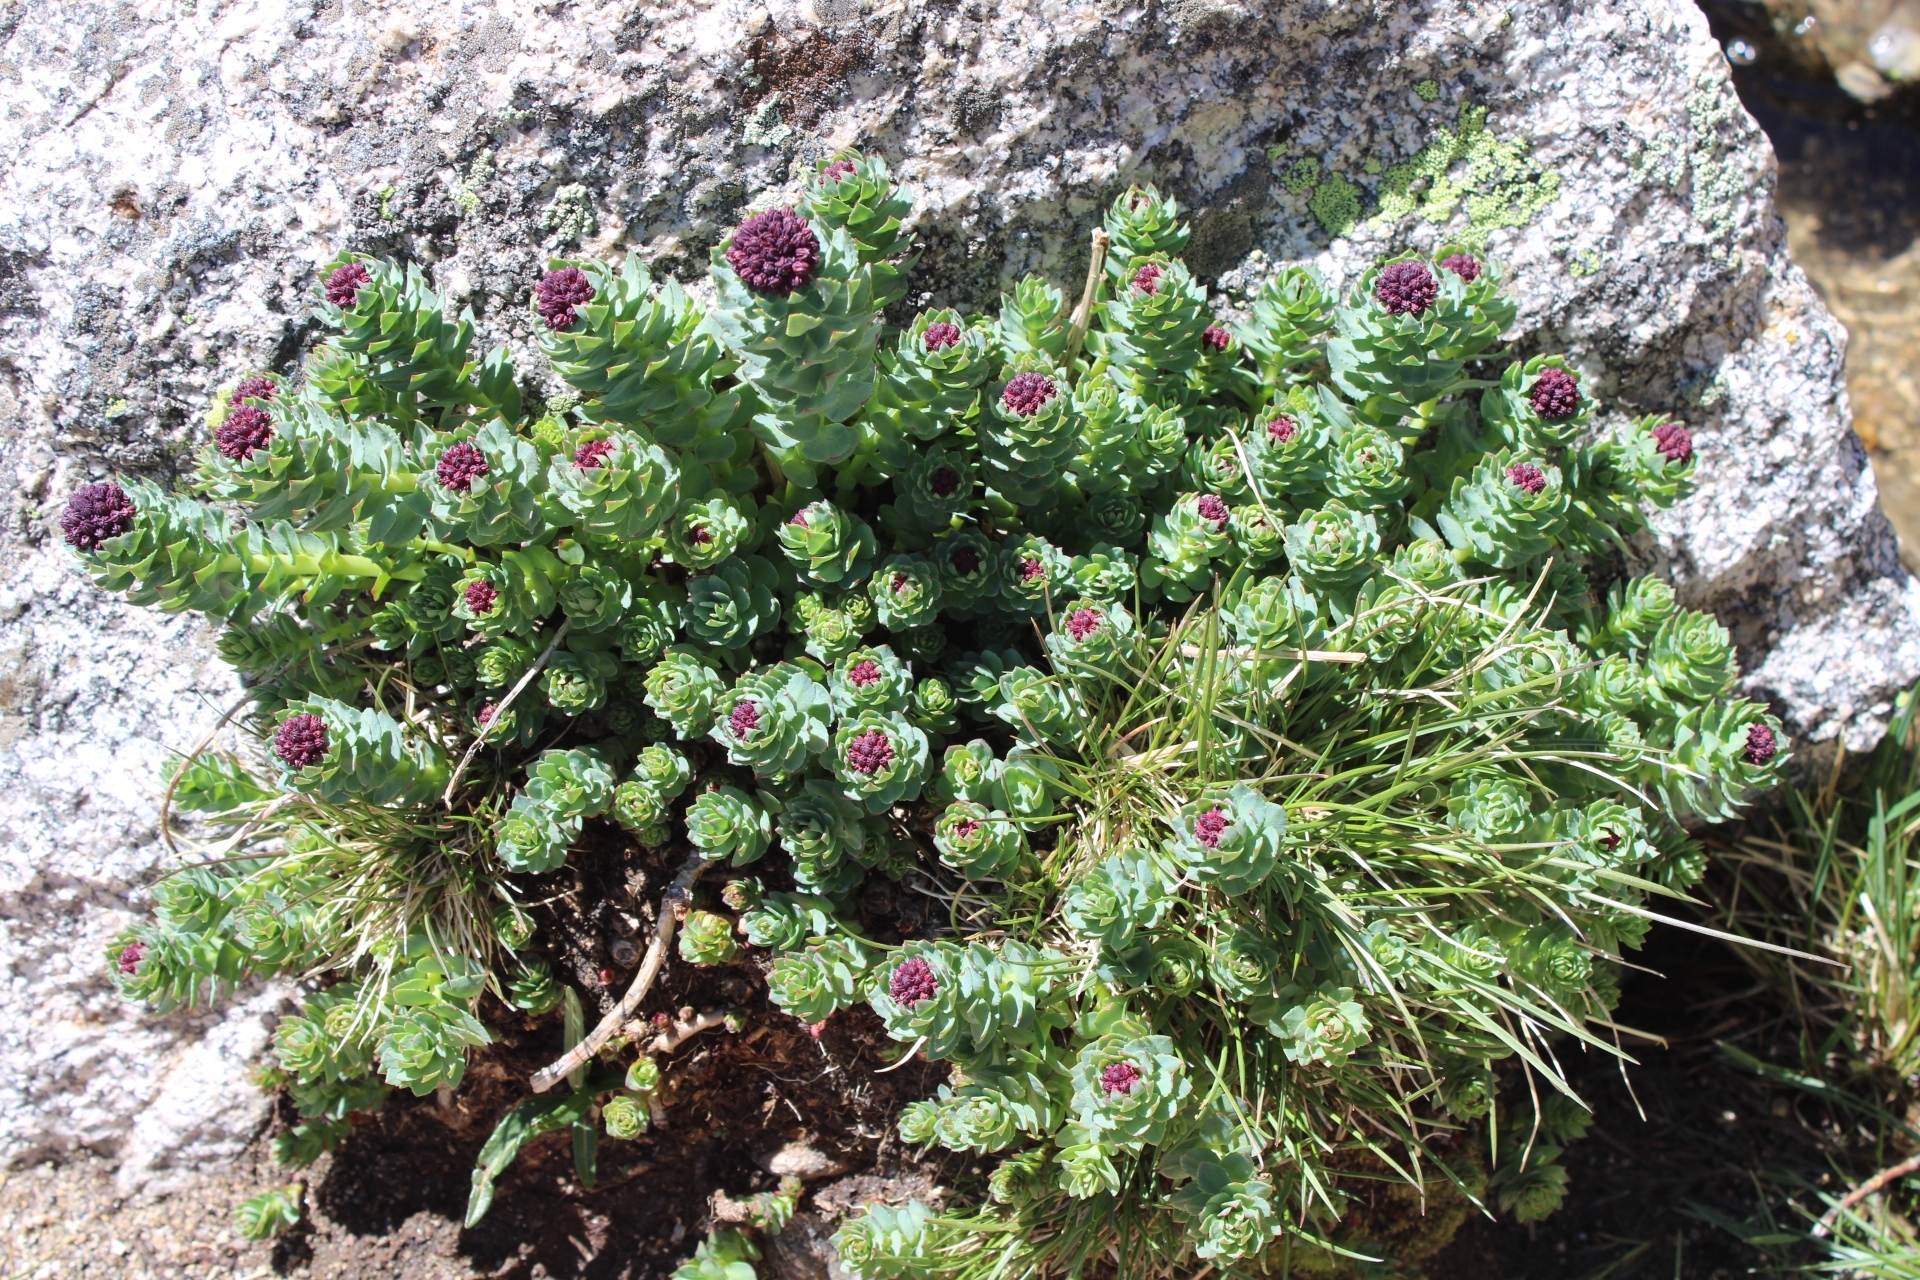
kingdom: Plantae
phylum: Tracheophyta
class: Magnoliopsida
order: Saxifragales
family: Crassulaceae
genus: Rhodiola
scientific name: Rhodiola integrifolia
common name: Western roseroot
